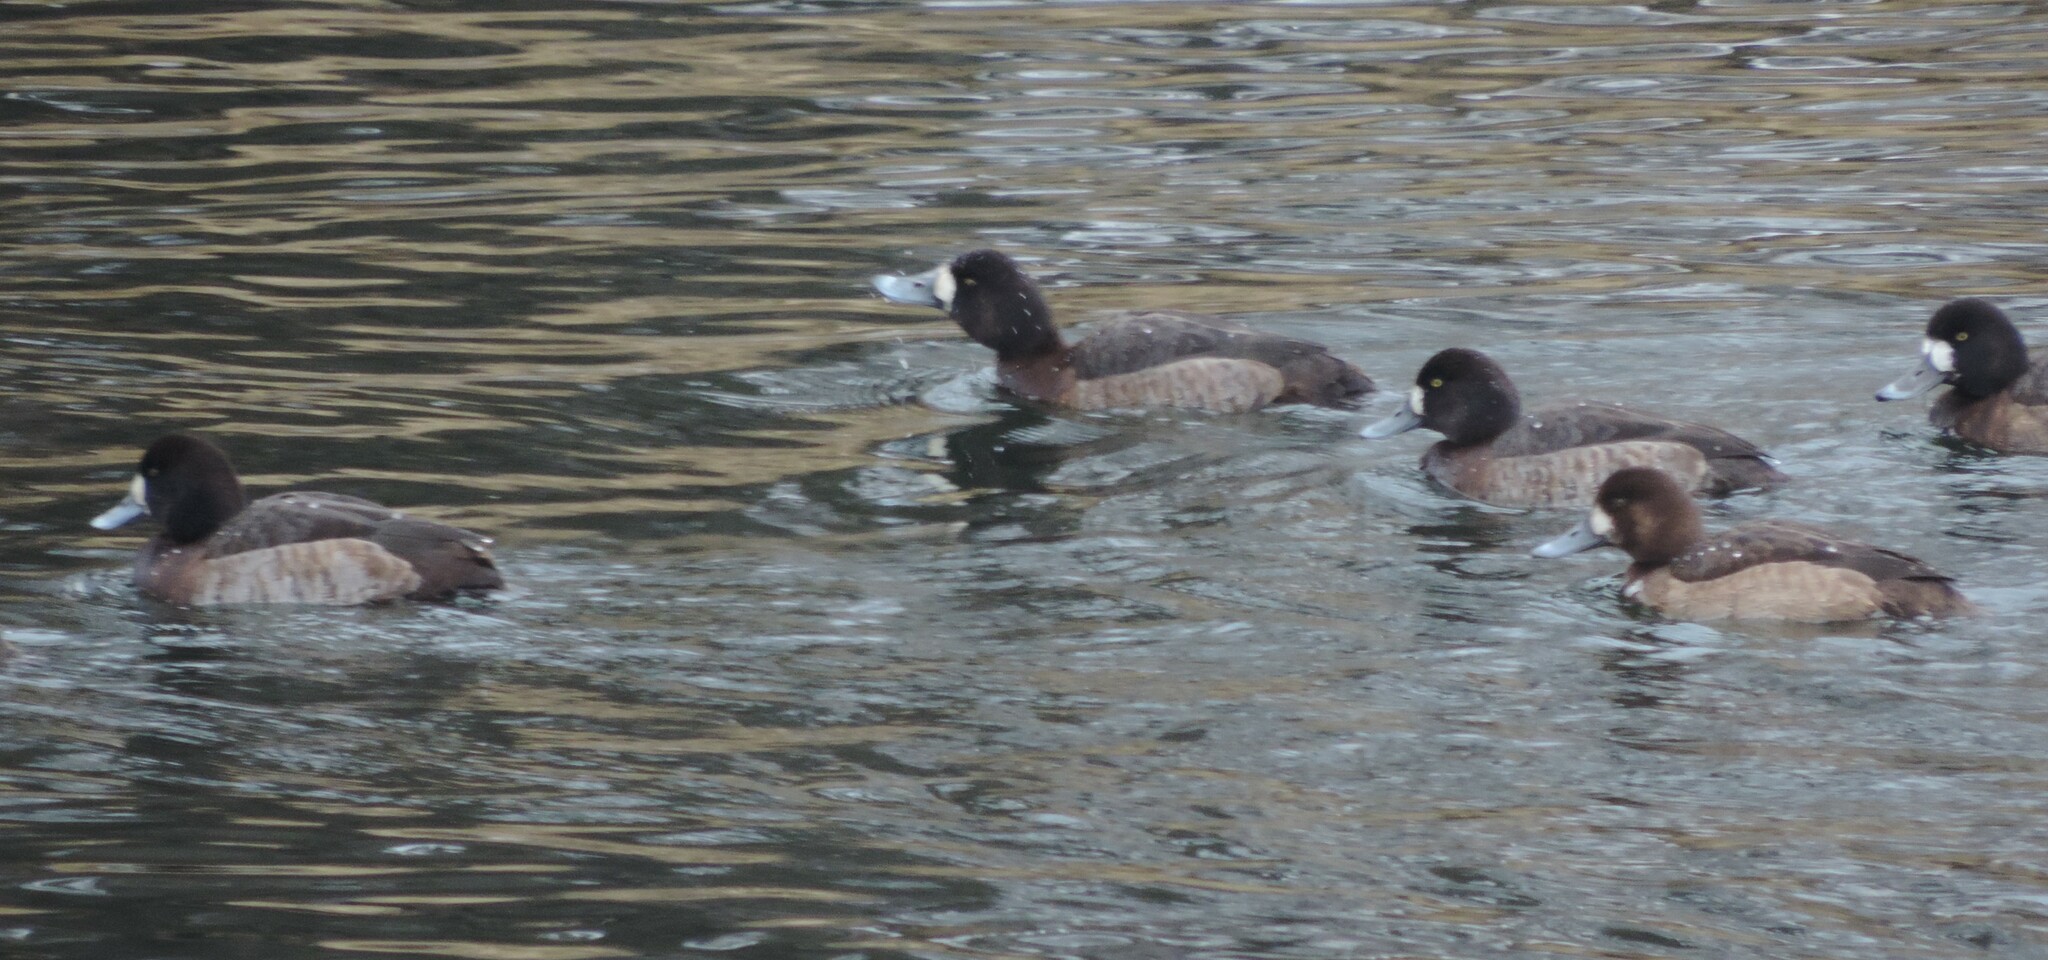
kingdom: Animalia
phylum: Chordata
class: Aves
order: Anseriformes
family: Anatidae
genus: Aythya
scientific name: Aythya marila
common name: Greater scaup
